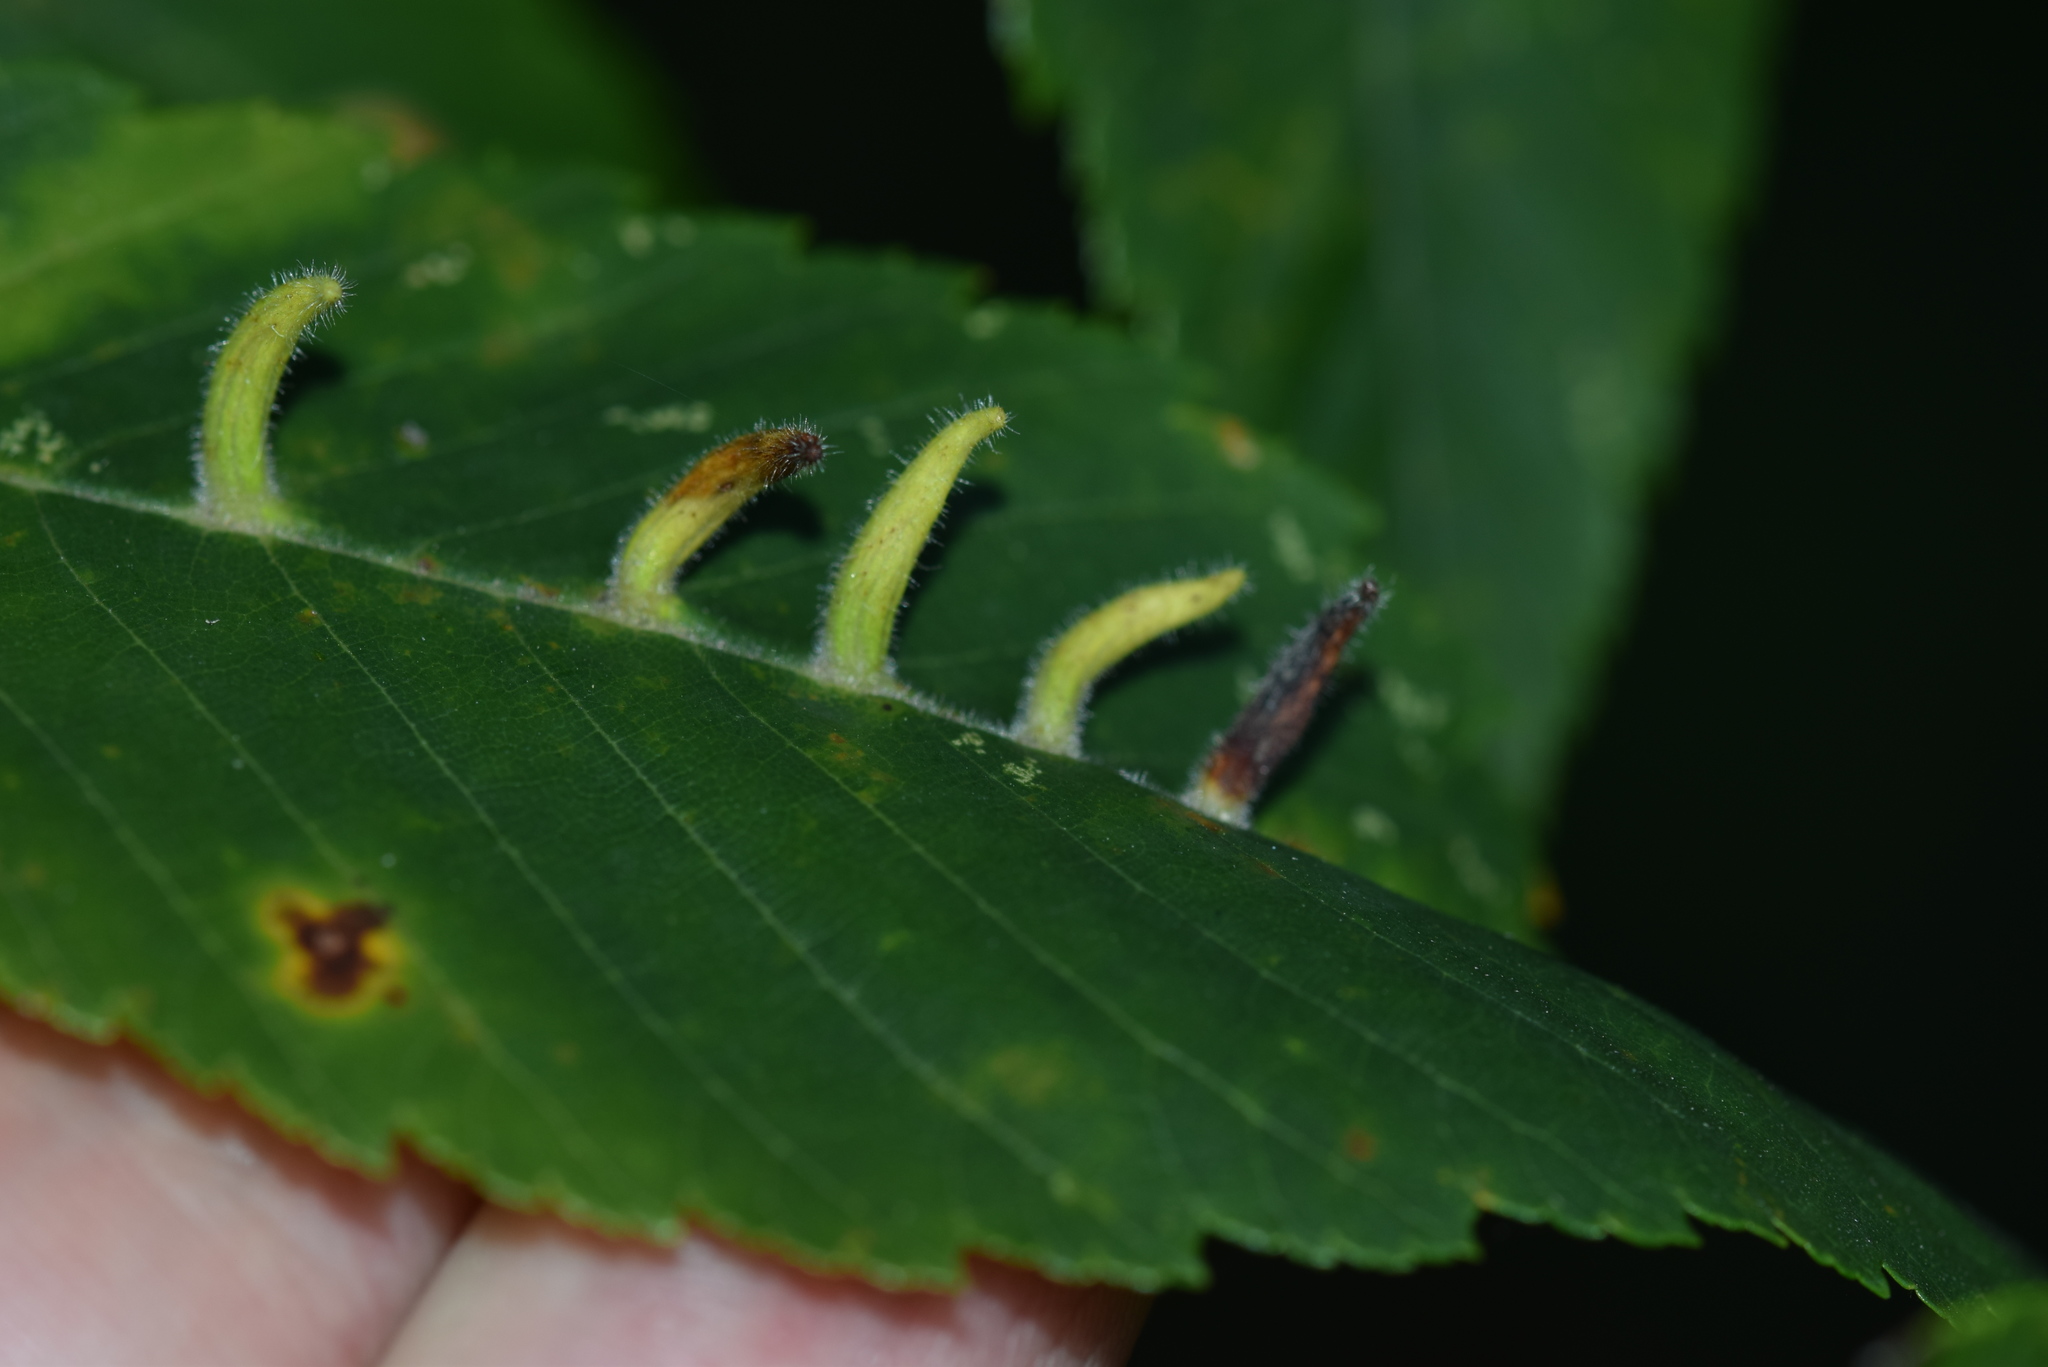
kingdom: Animalia
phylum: Arthropoda
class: Arachnida
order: Trombidiformes
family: Eriophyidae
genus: Aceria
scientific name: Aceria
